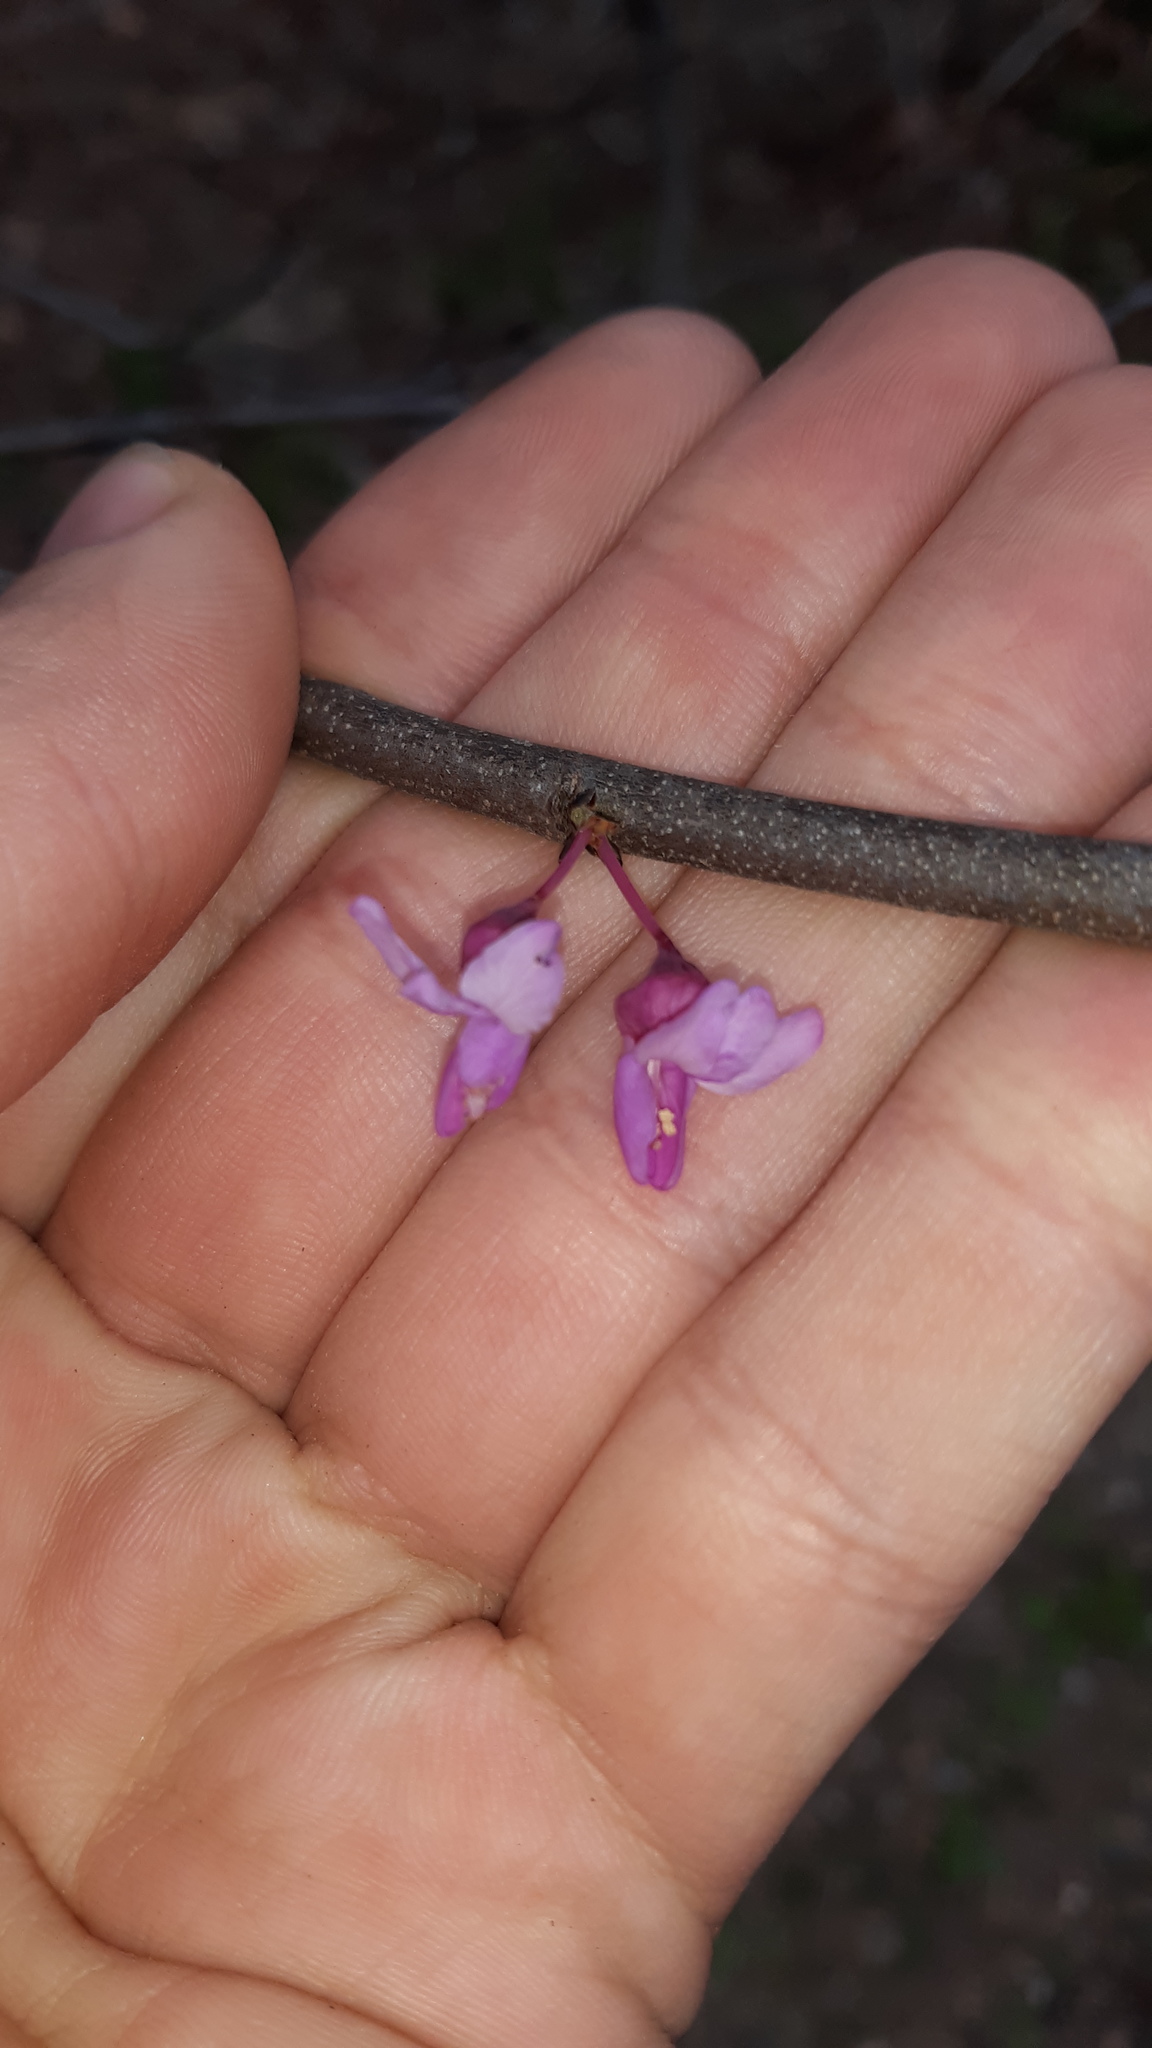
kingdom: Plantae
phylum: Tracheophyta
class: Magnoliopsida
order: Fabales
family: Fabaceae
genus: Cercis
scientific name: Cercis canadensis
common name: Eastern redbud
